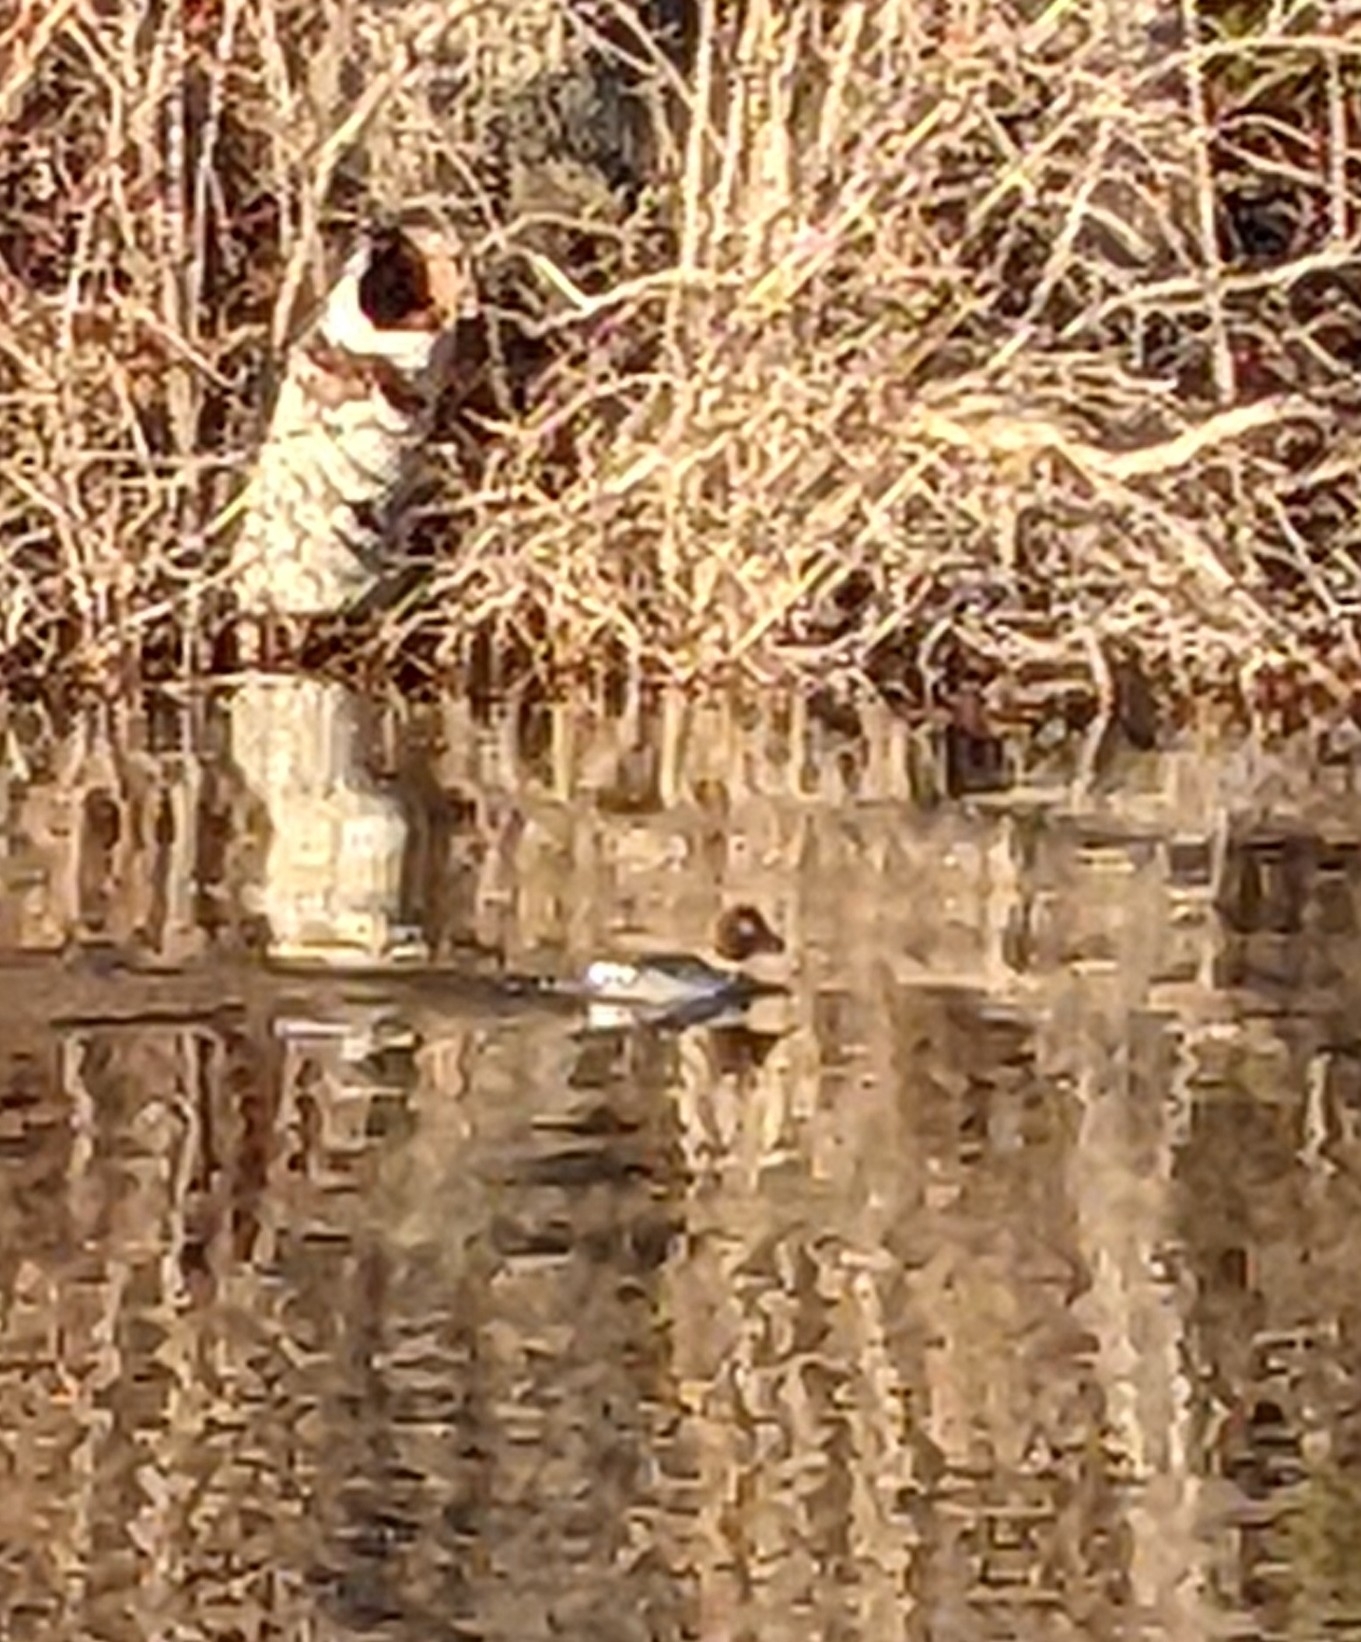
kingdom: Animalia
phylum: Chordata
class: Aves
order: Anseriformes
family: Anatidae
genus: Bucephala
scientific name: Bucephala clangula
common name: Common goldeneye
